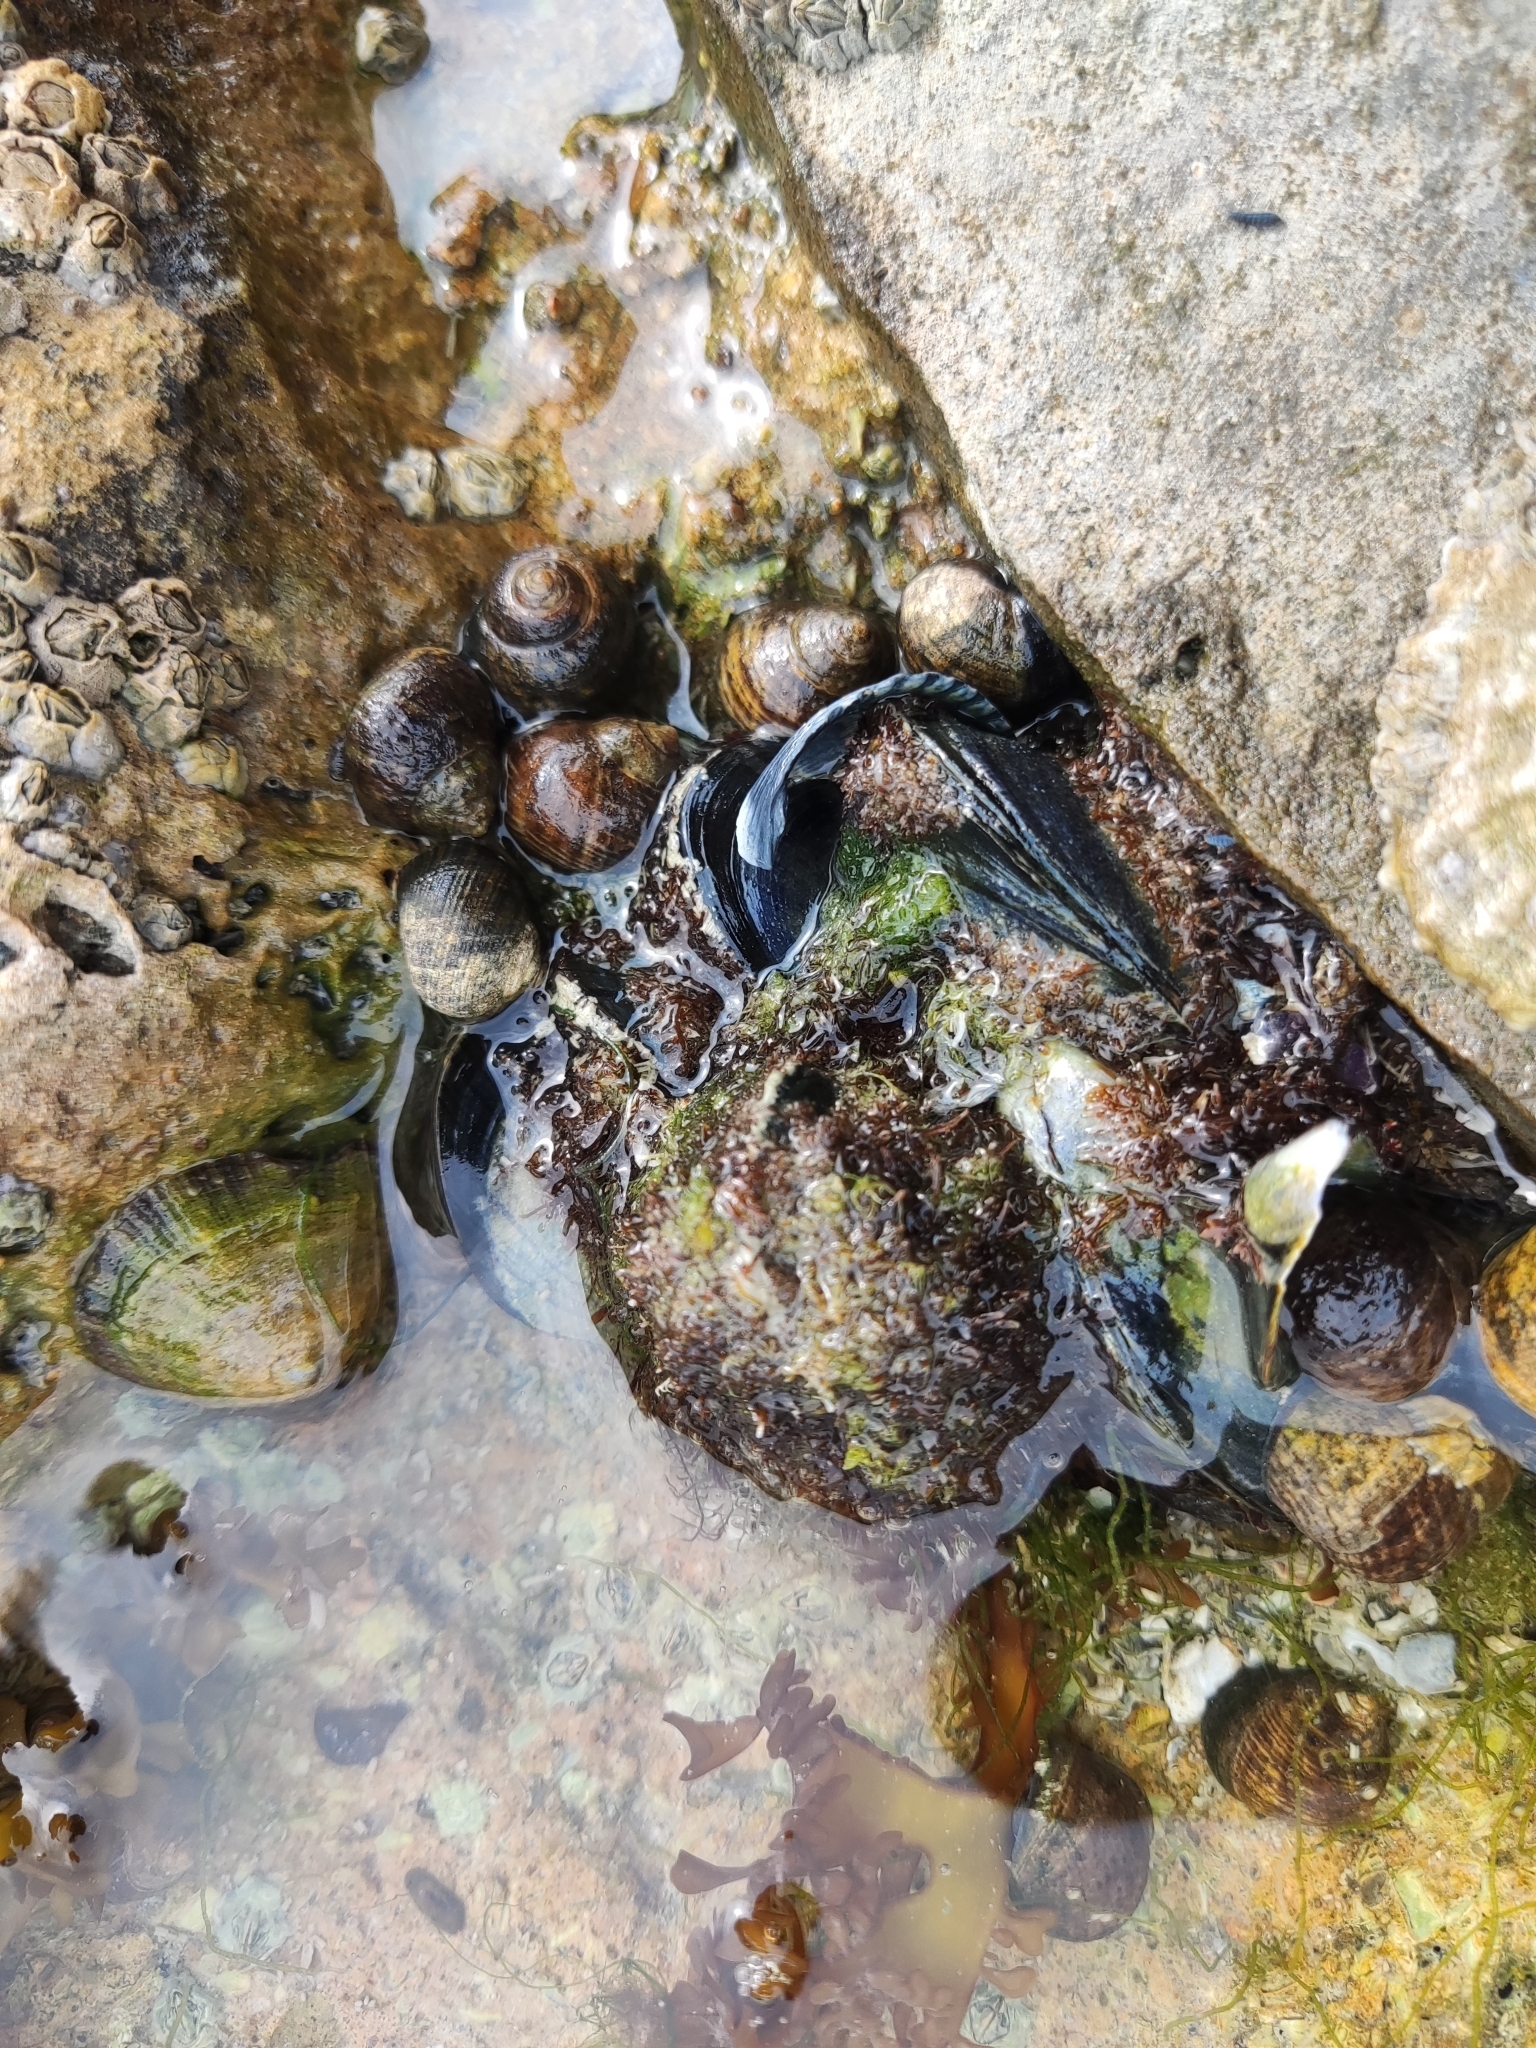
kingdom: Animalia
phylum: Mollusca
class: Bivalvia
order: Mytilida
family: Mytilidae
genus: Mytilus
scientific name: Mytilus edulis
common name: Blue mussel
